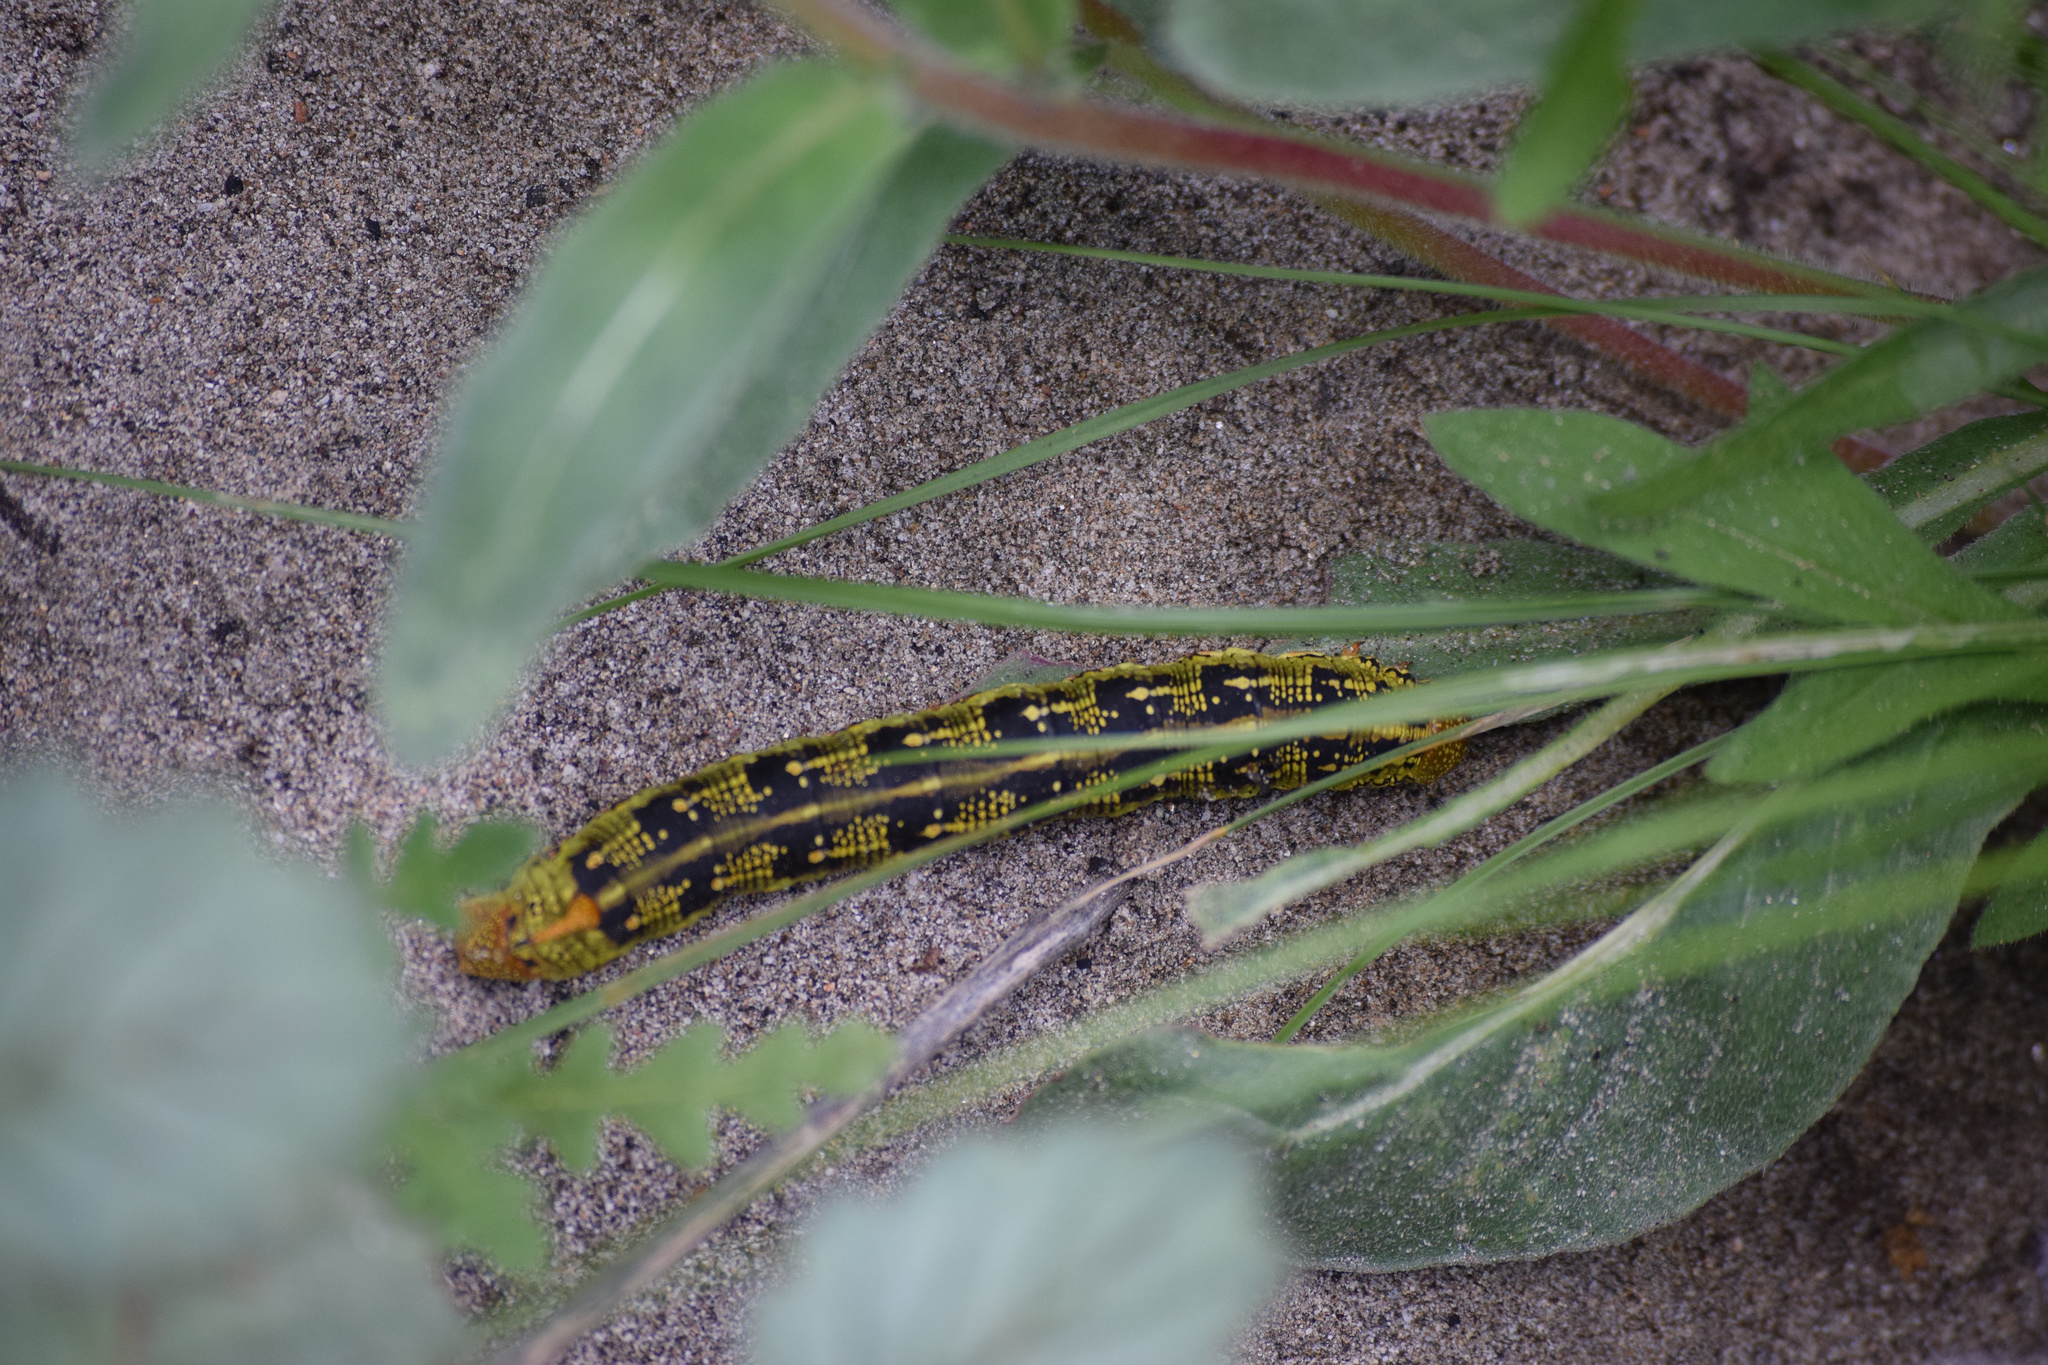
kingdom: Animalia
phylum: Arthropoda
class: Insecta
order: Lepidoptera
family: Sphingidae
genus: Hyles
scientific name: Hyles lineata
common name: White-lined sphinx
